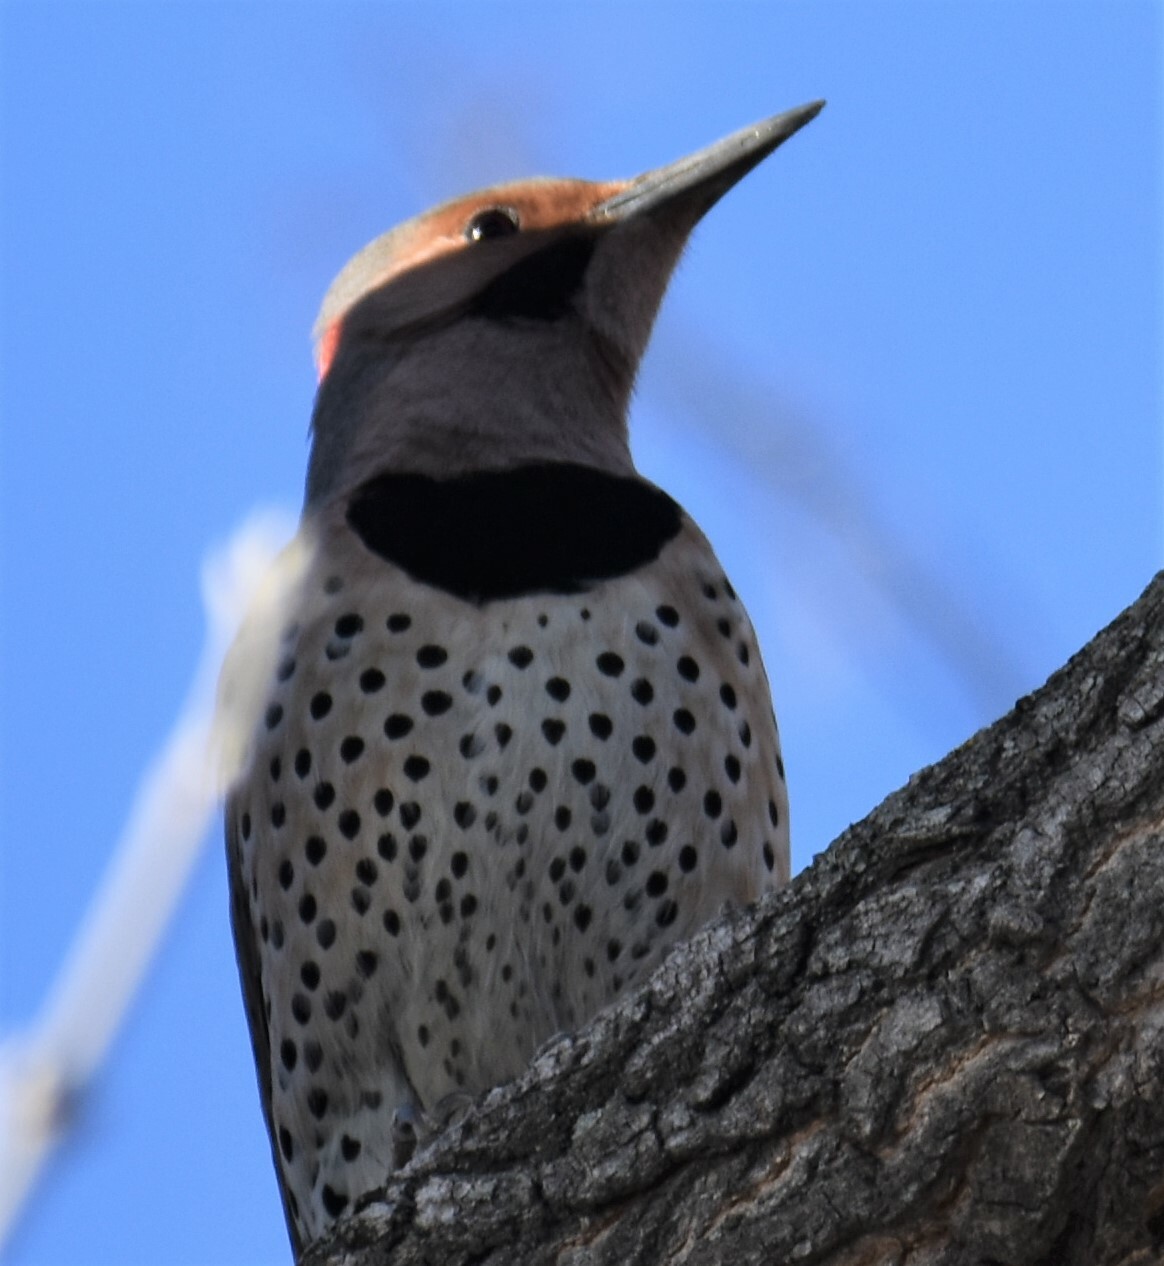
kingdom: Animalia
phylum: Chordata
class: Aves
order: Piciformes
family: Picidae
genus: Colaptes
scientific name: Colaptes auratus
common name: Northern flicker
